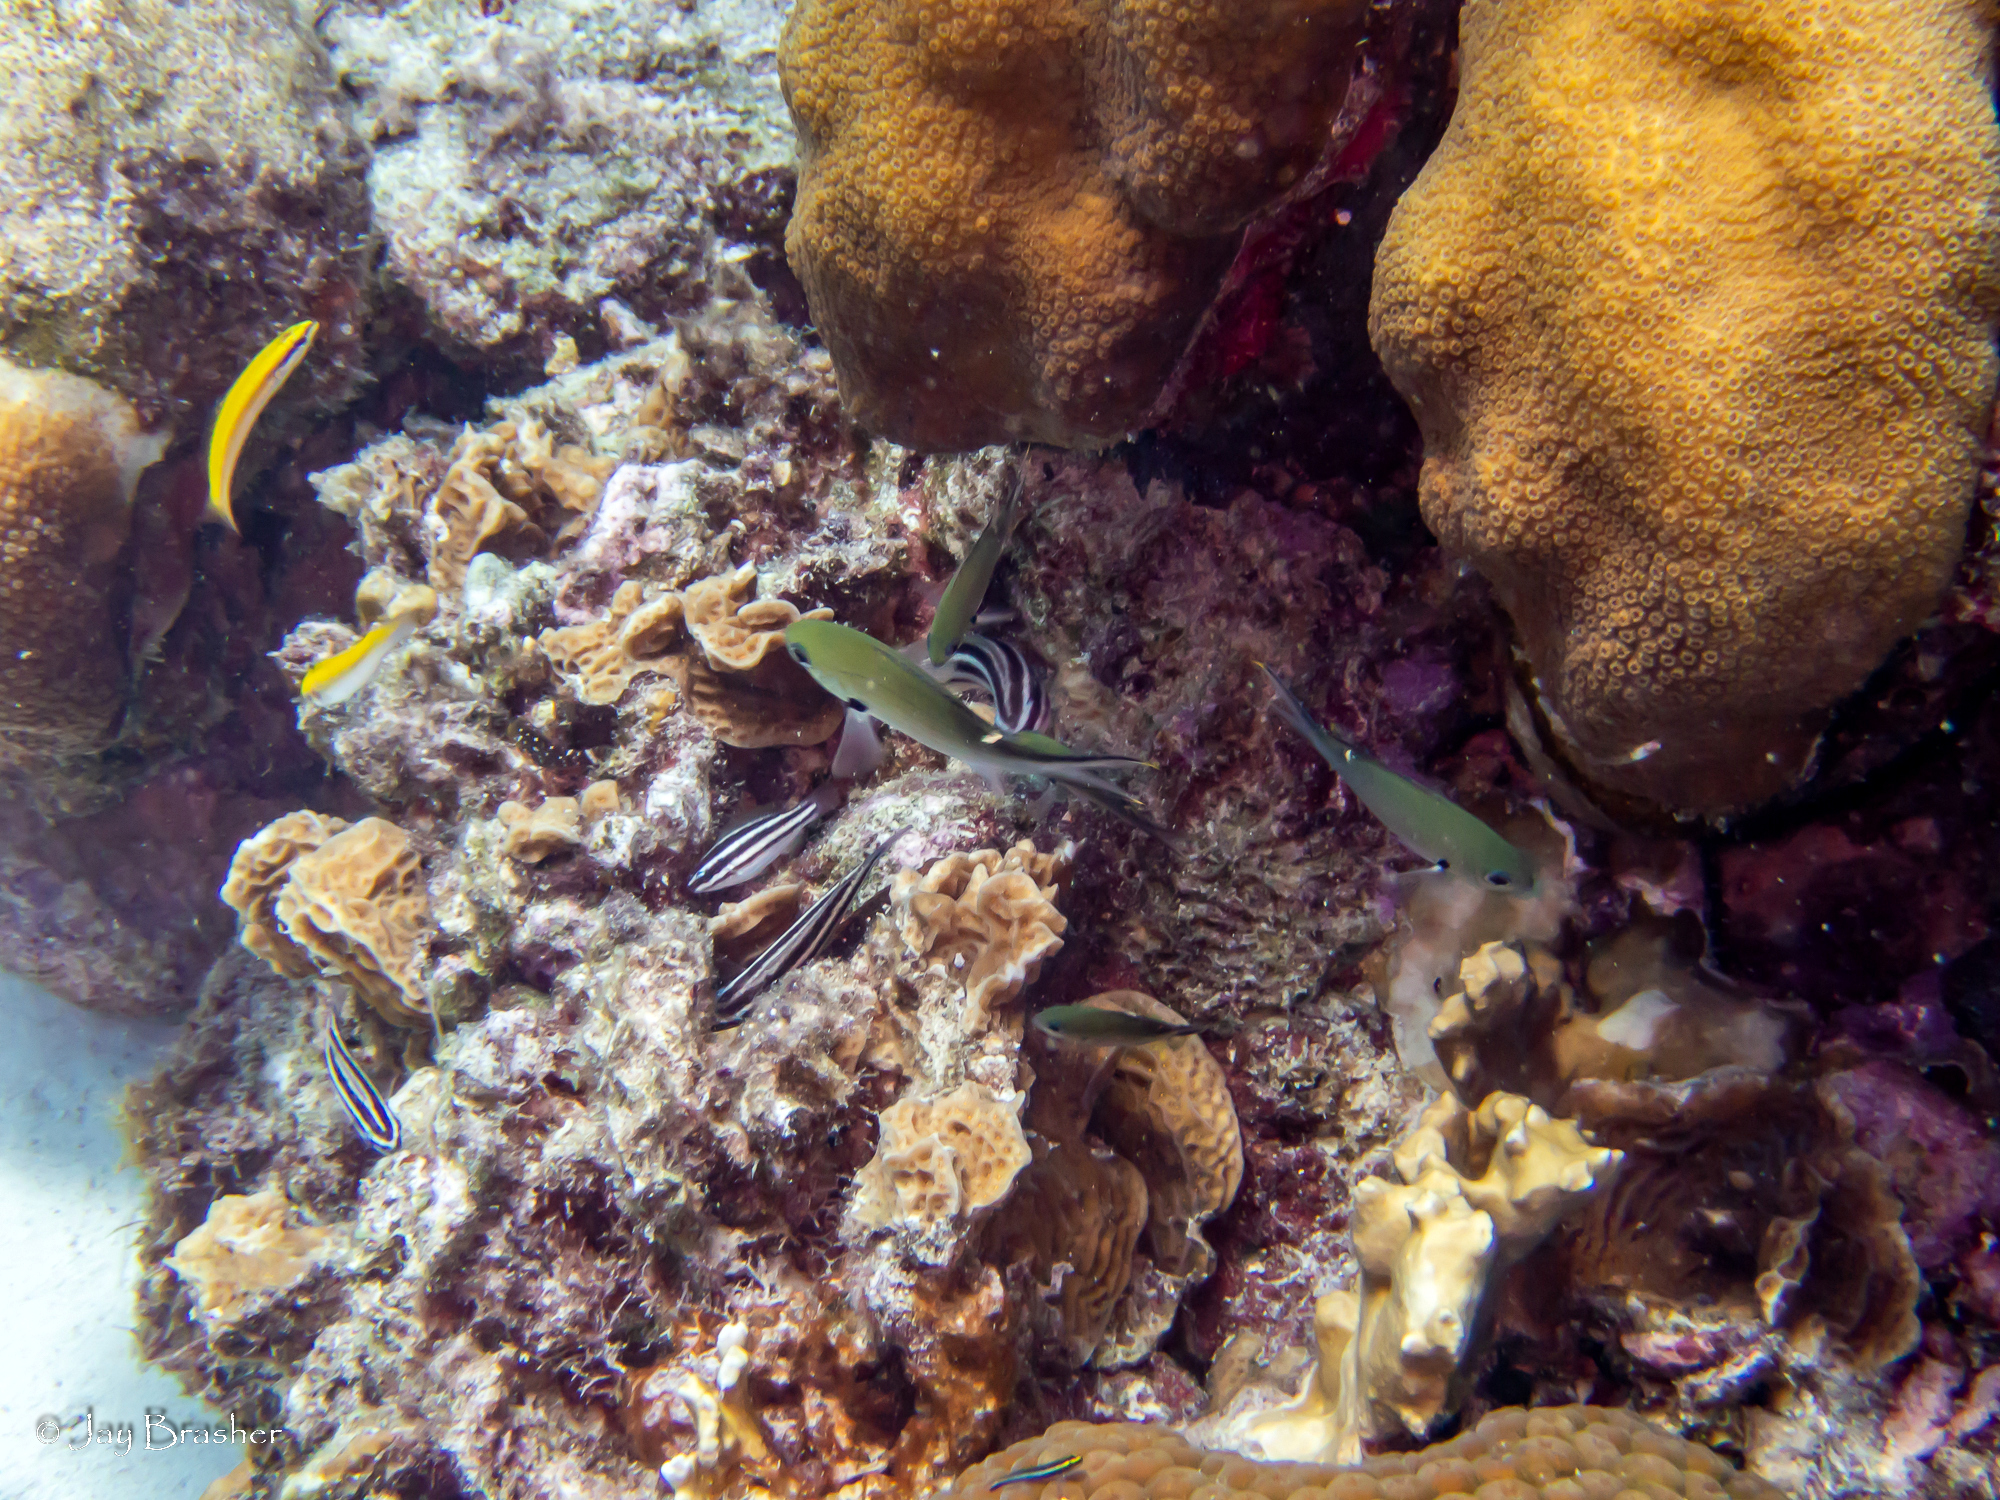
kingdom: Animalia
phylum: Chordata
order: Perciformes
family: Labridae
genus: Thalassoma
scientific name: Thalassoma bifasciatum
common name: Bluehead wrasse
